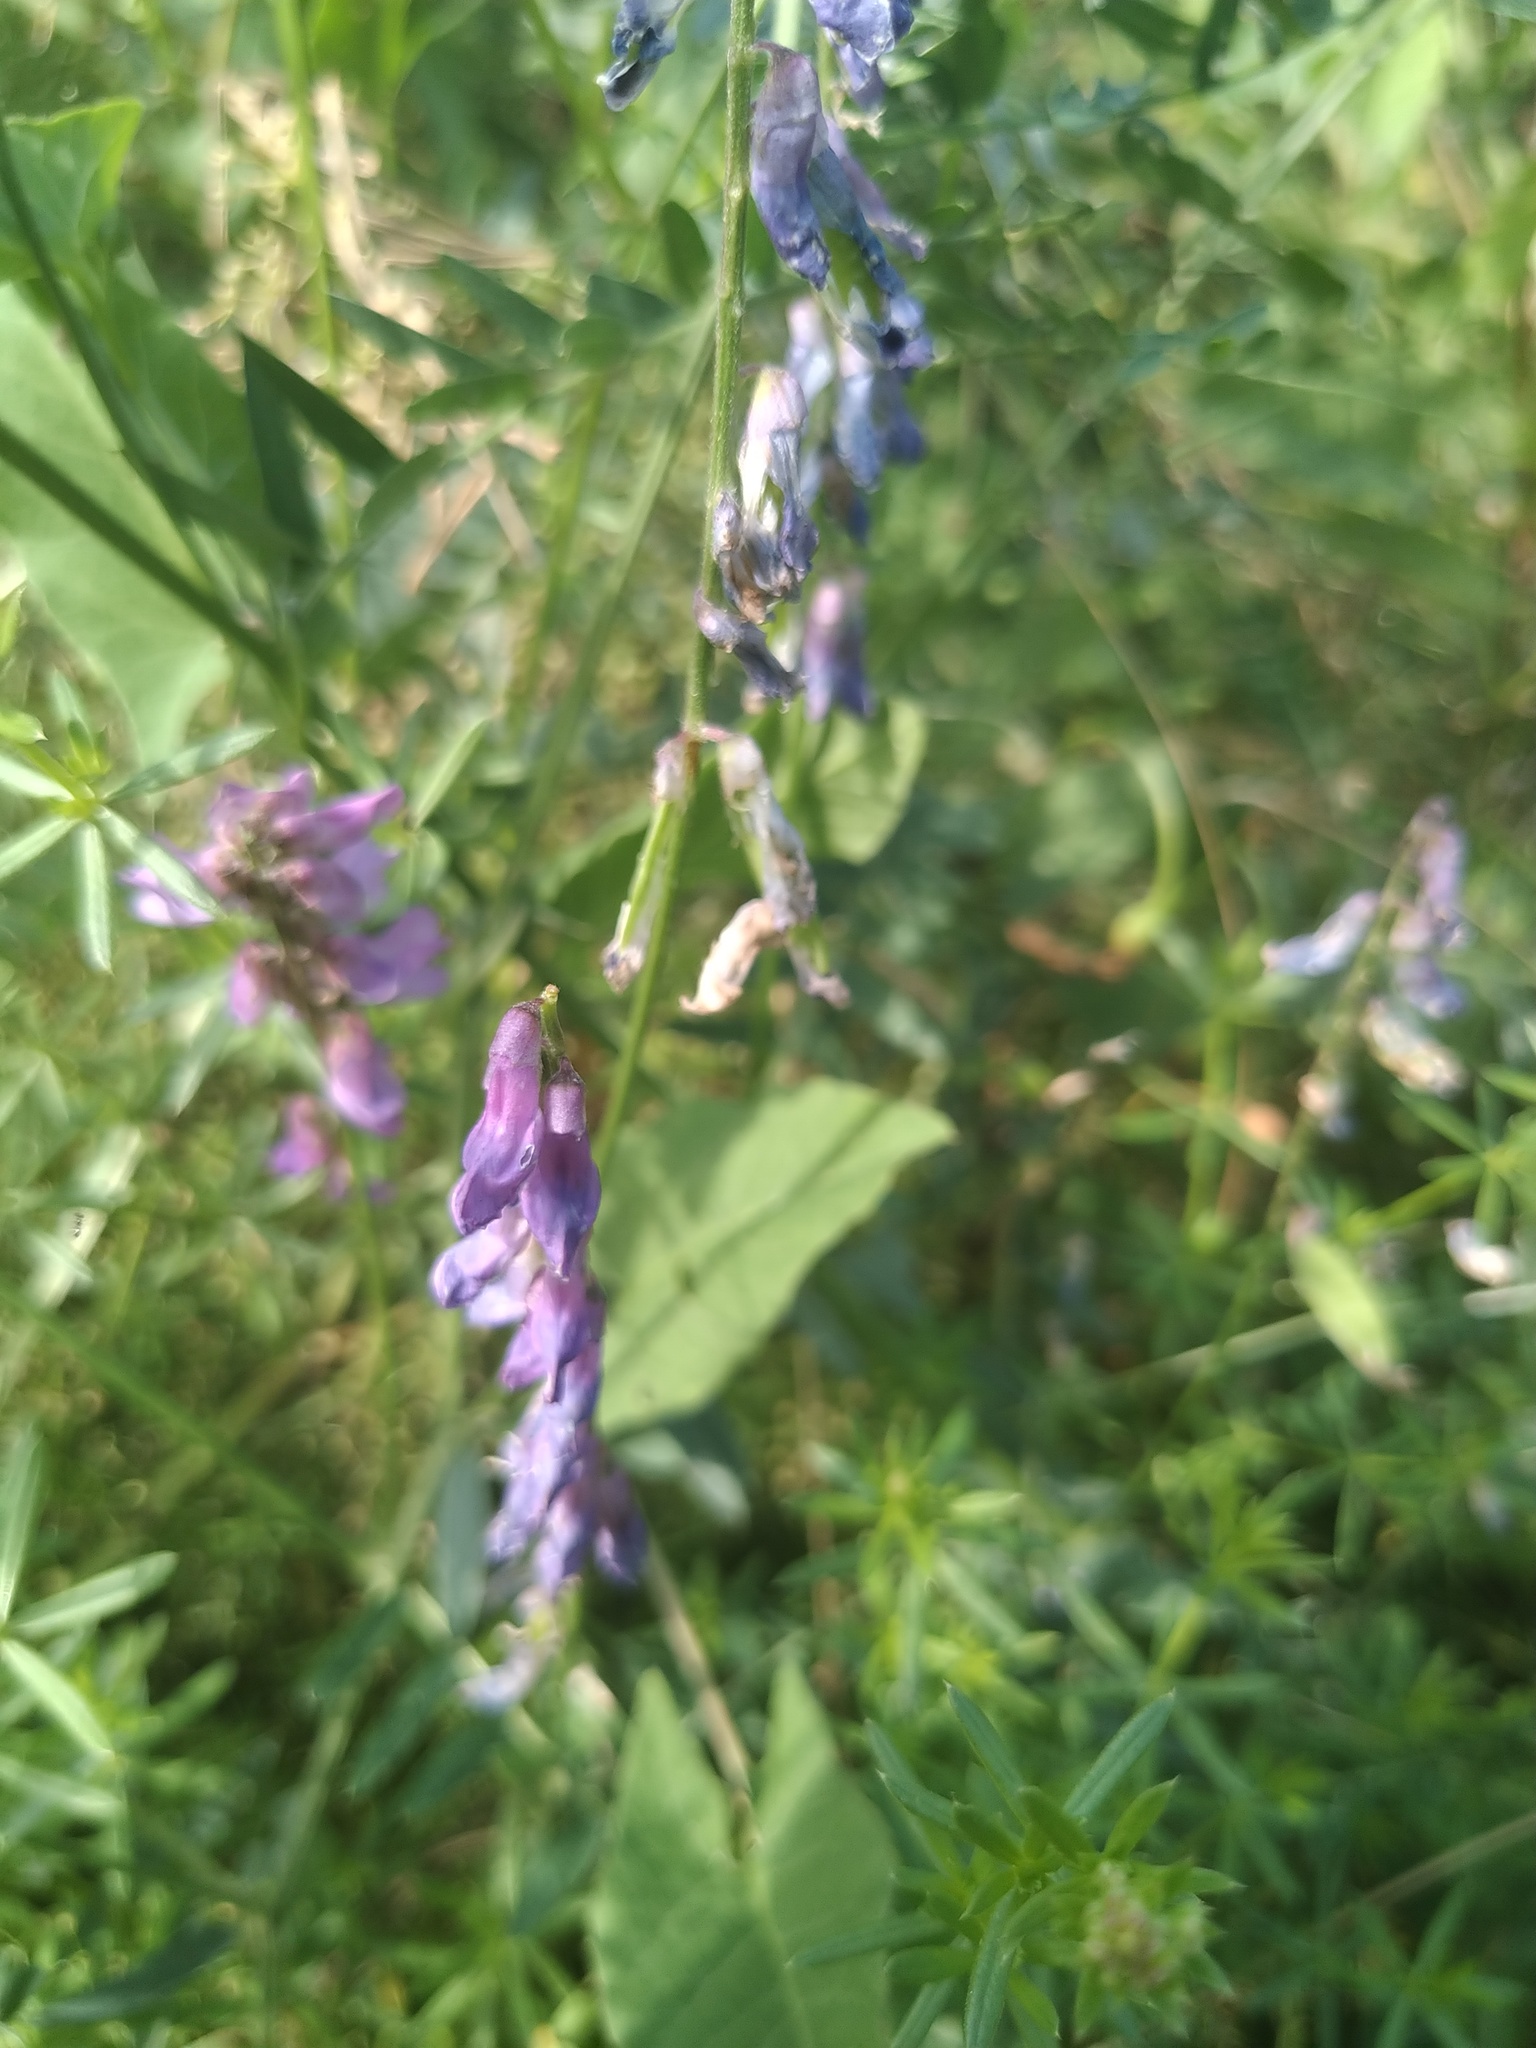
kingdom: Plantae
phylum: Tracheophyta
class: Magnoliopsida
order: Fabales
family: Fabaceae
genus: Vicia
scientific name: Vicia cracca
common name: Bird vetch
